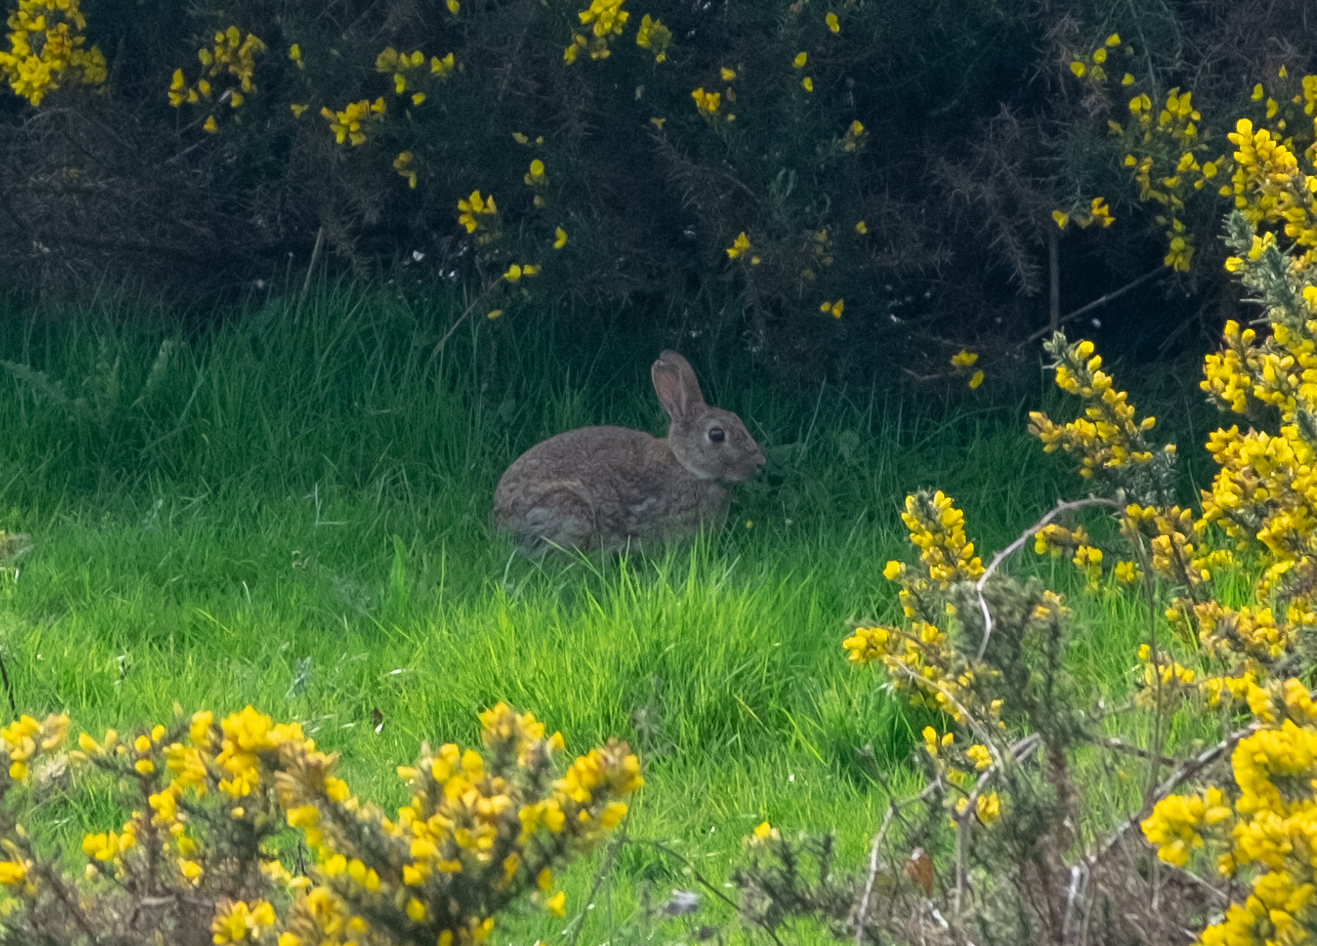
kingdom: Animalia
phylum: Chordata
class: Mammalia
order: Lagomorpha
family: Leporidae
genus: Oryctolagus
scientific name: Oryctolagus cuniculus
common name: European rabbit
